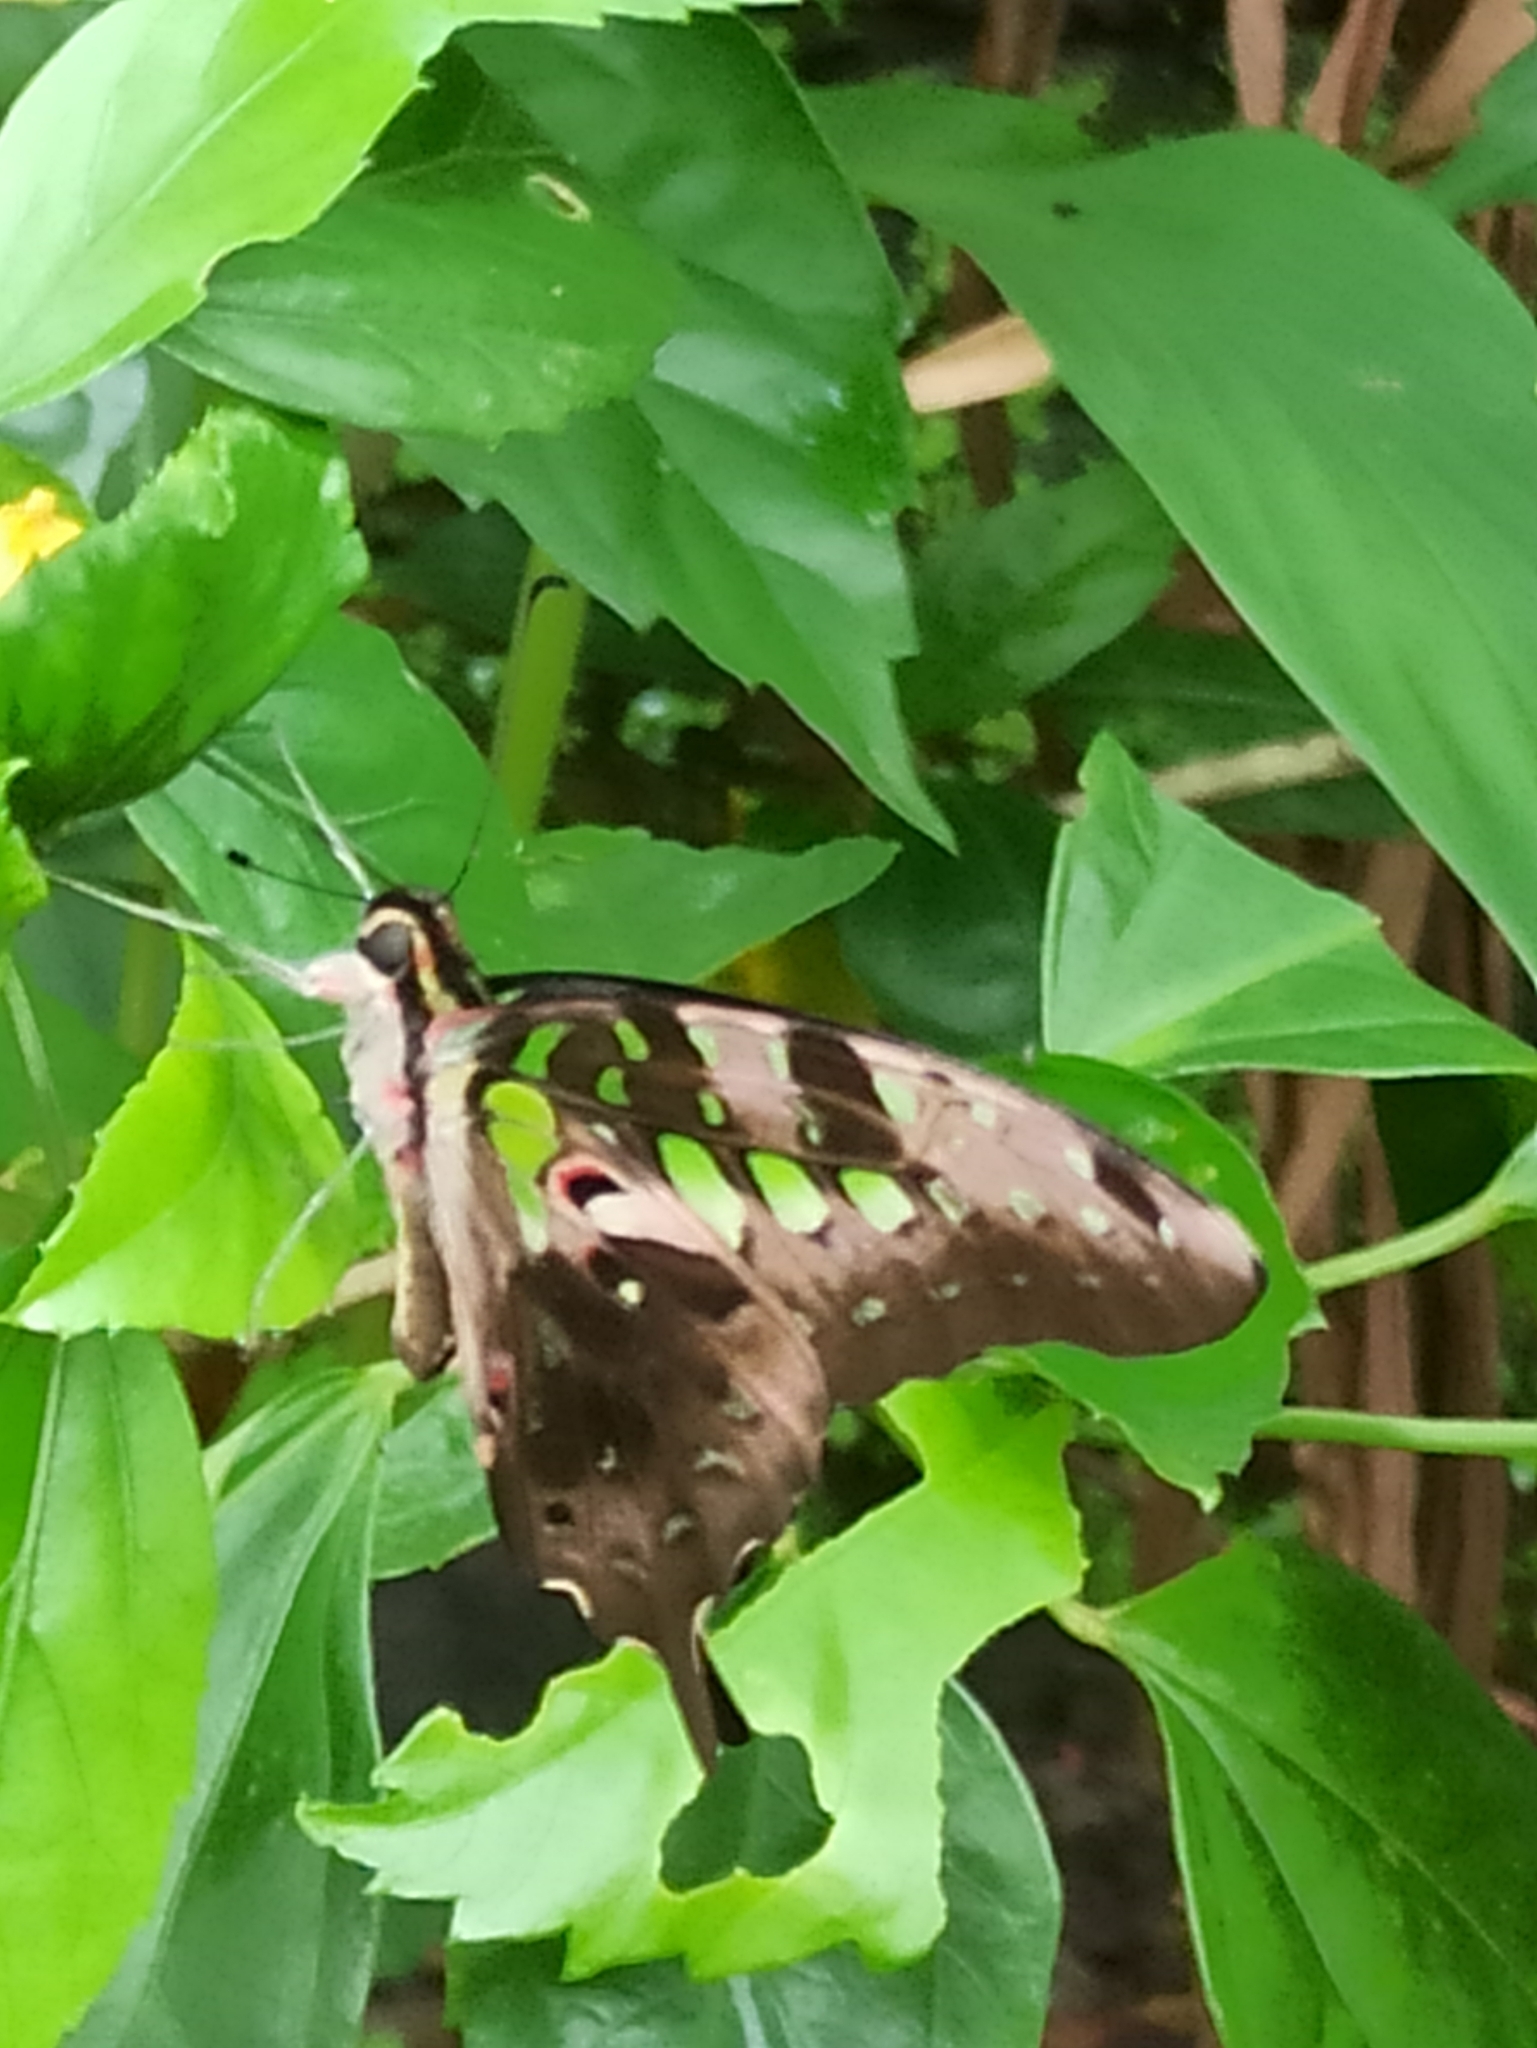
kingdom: Animalia
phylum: Arthropoda
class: Insecta
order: Lepidoptera
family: Papilionidae
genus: Graphium
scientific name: Graphium agamemnon
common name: Tailed jay
